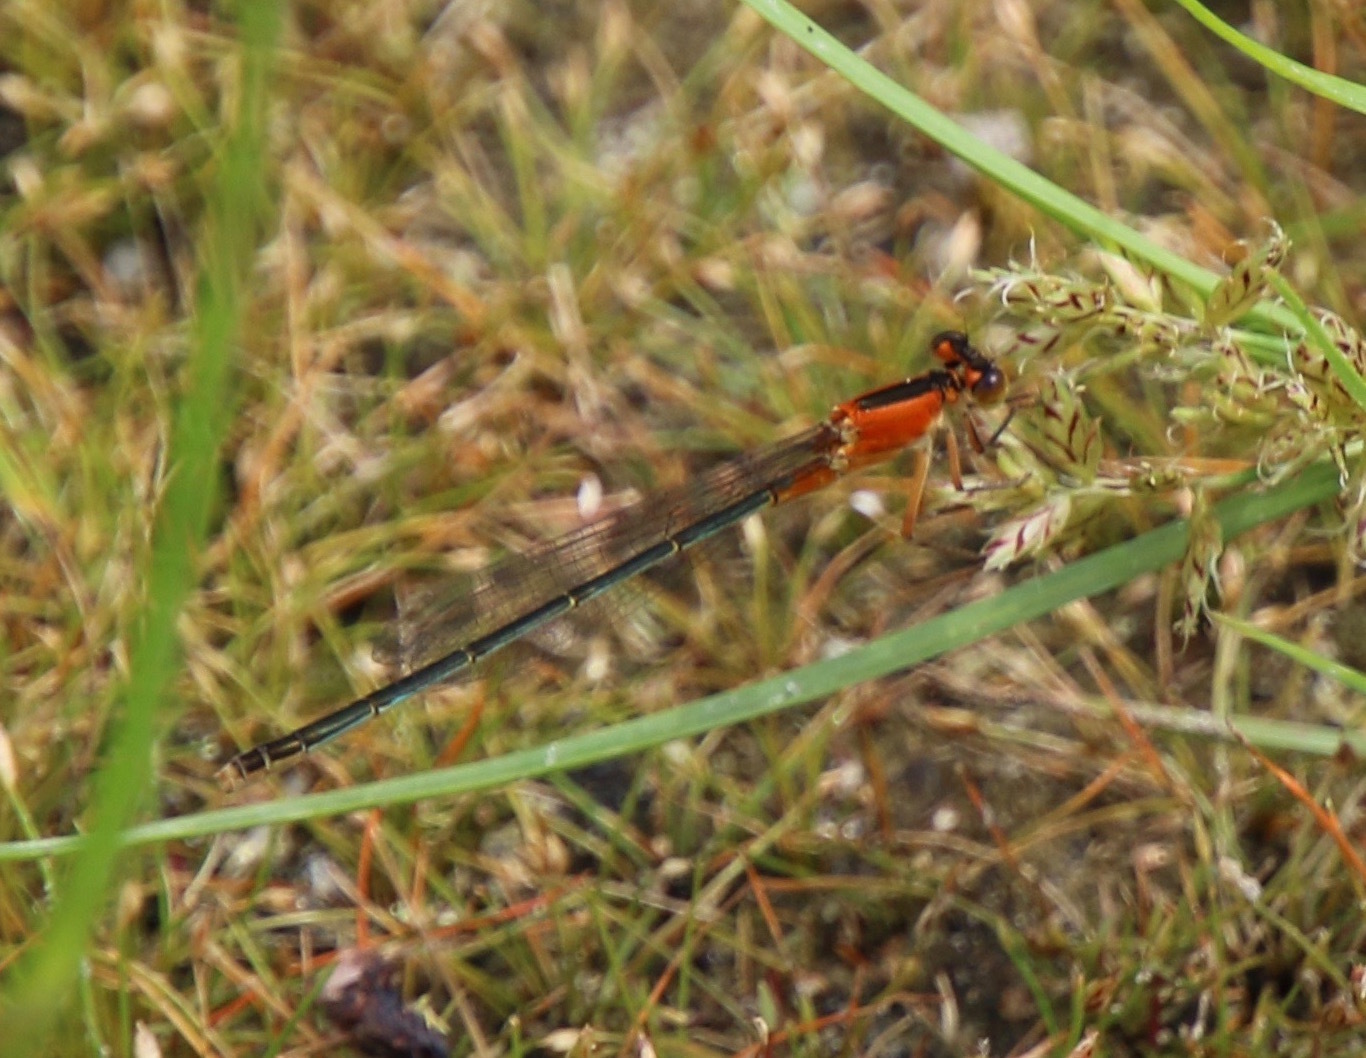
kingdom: Animalia
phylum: Arthropoda
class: Insecta
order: Odonata
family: Coenagrionidae
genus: Ischnura
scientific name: Ischnura ramburii
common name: Rambur's forktail
